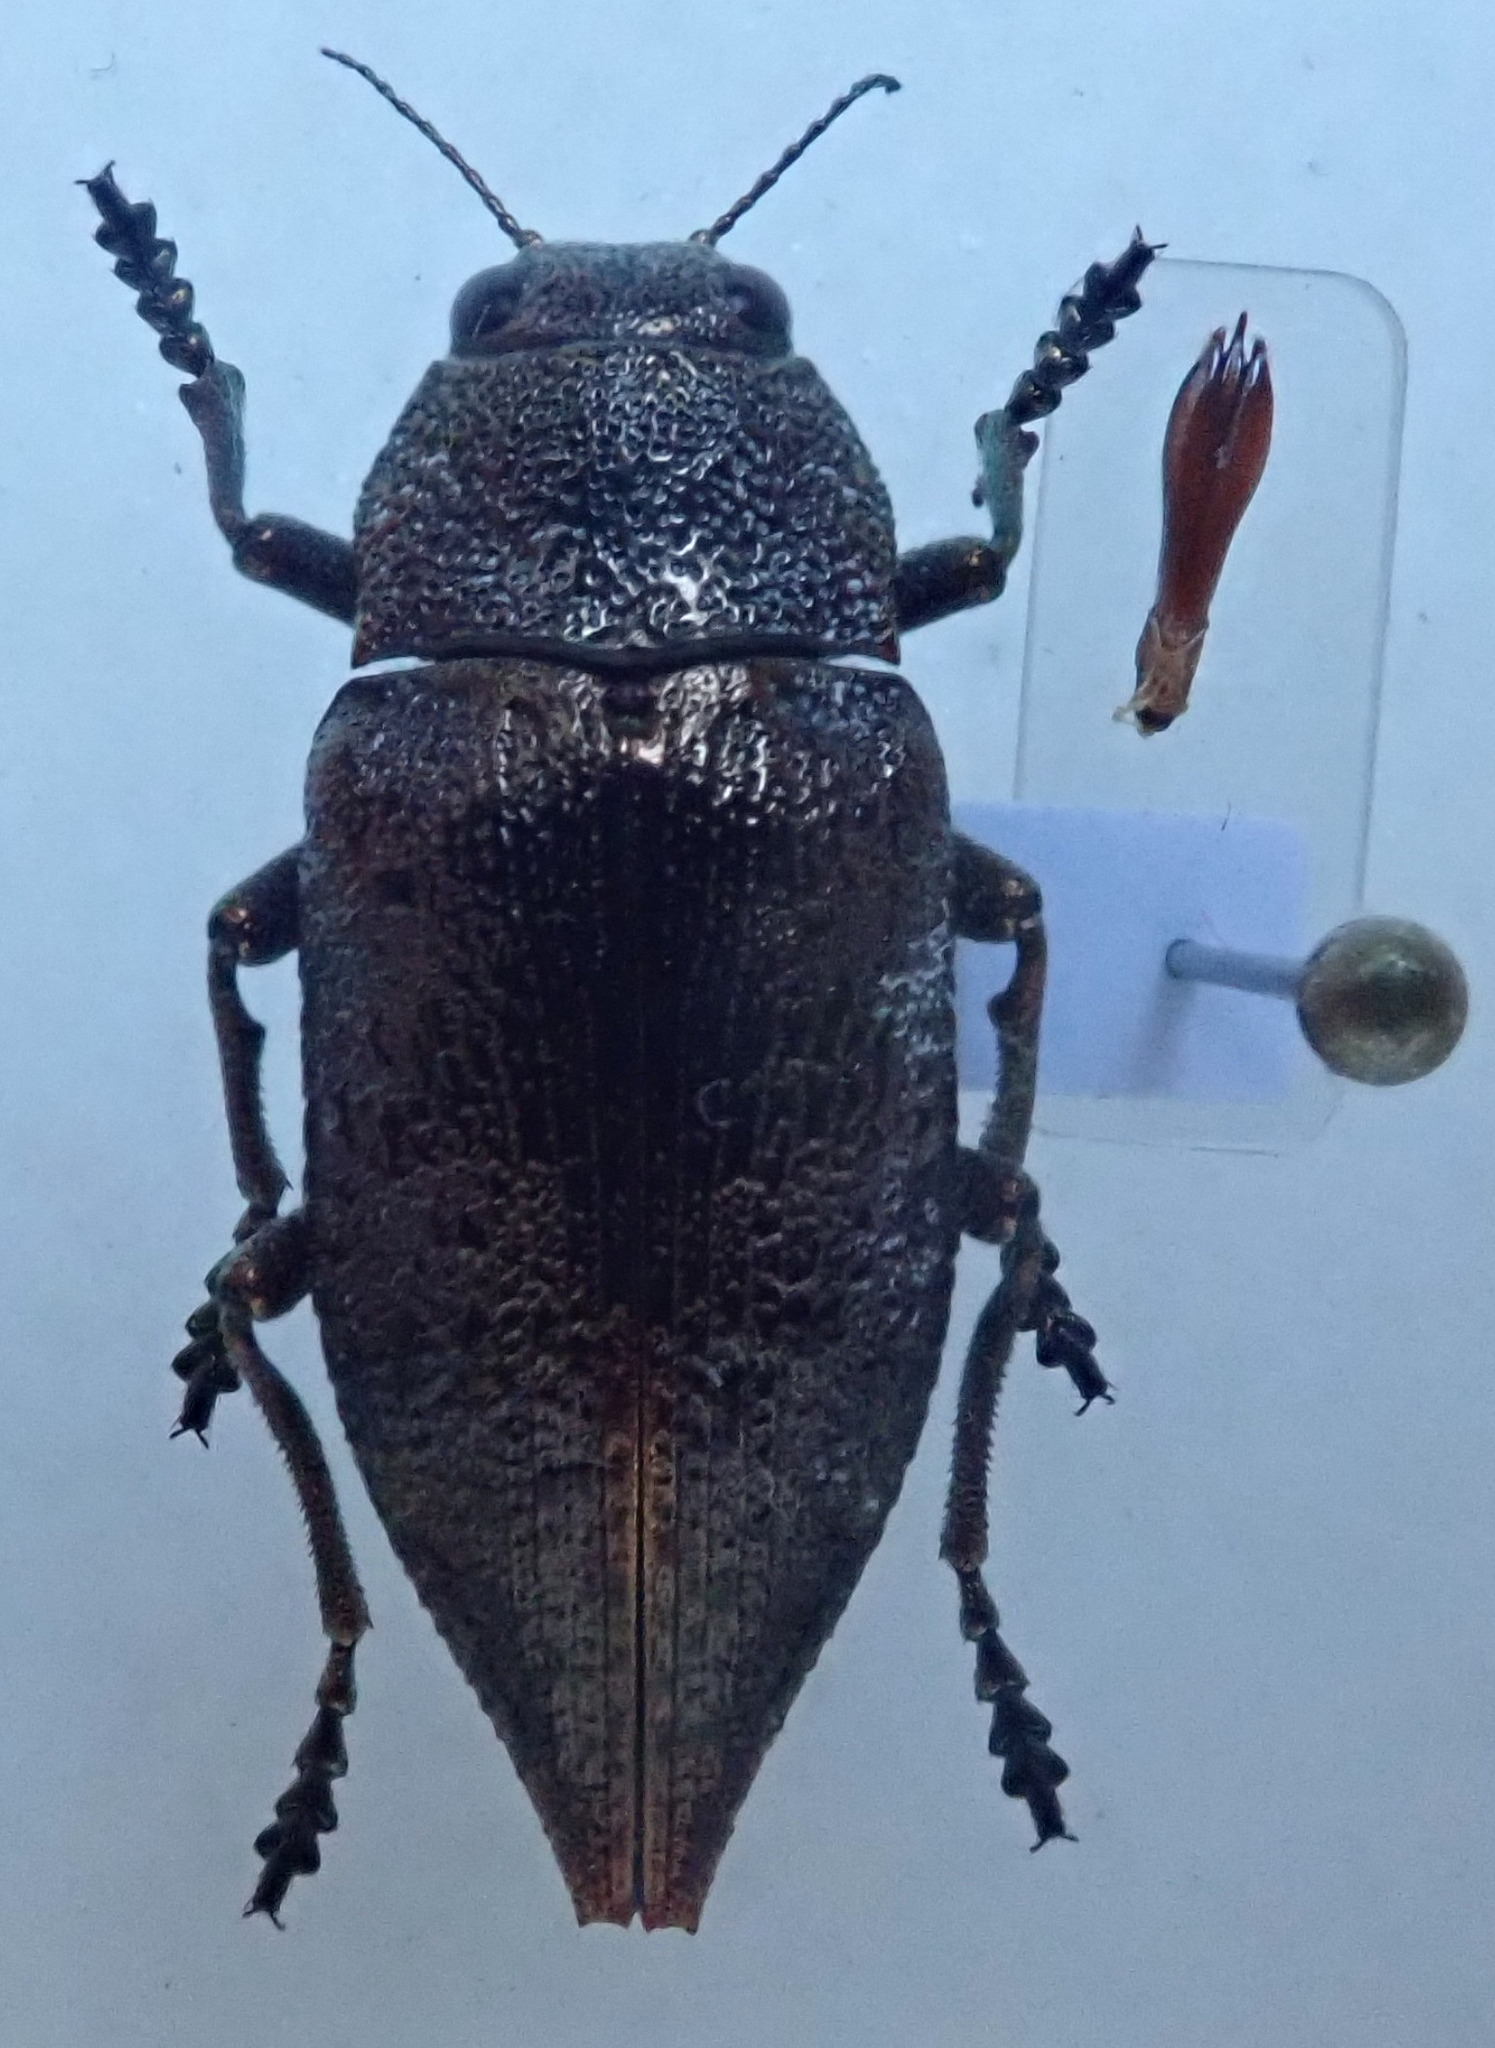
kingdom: Animalia
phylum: Arthropoda
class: Insecta
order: Coleoptera
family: Buprestidae
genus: Dicerca
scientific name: Dicerca aenea
